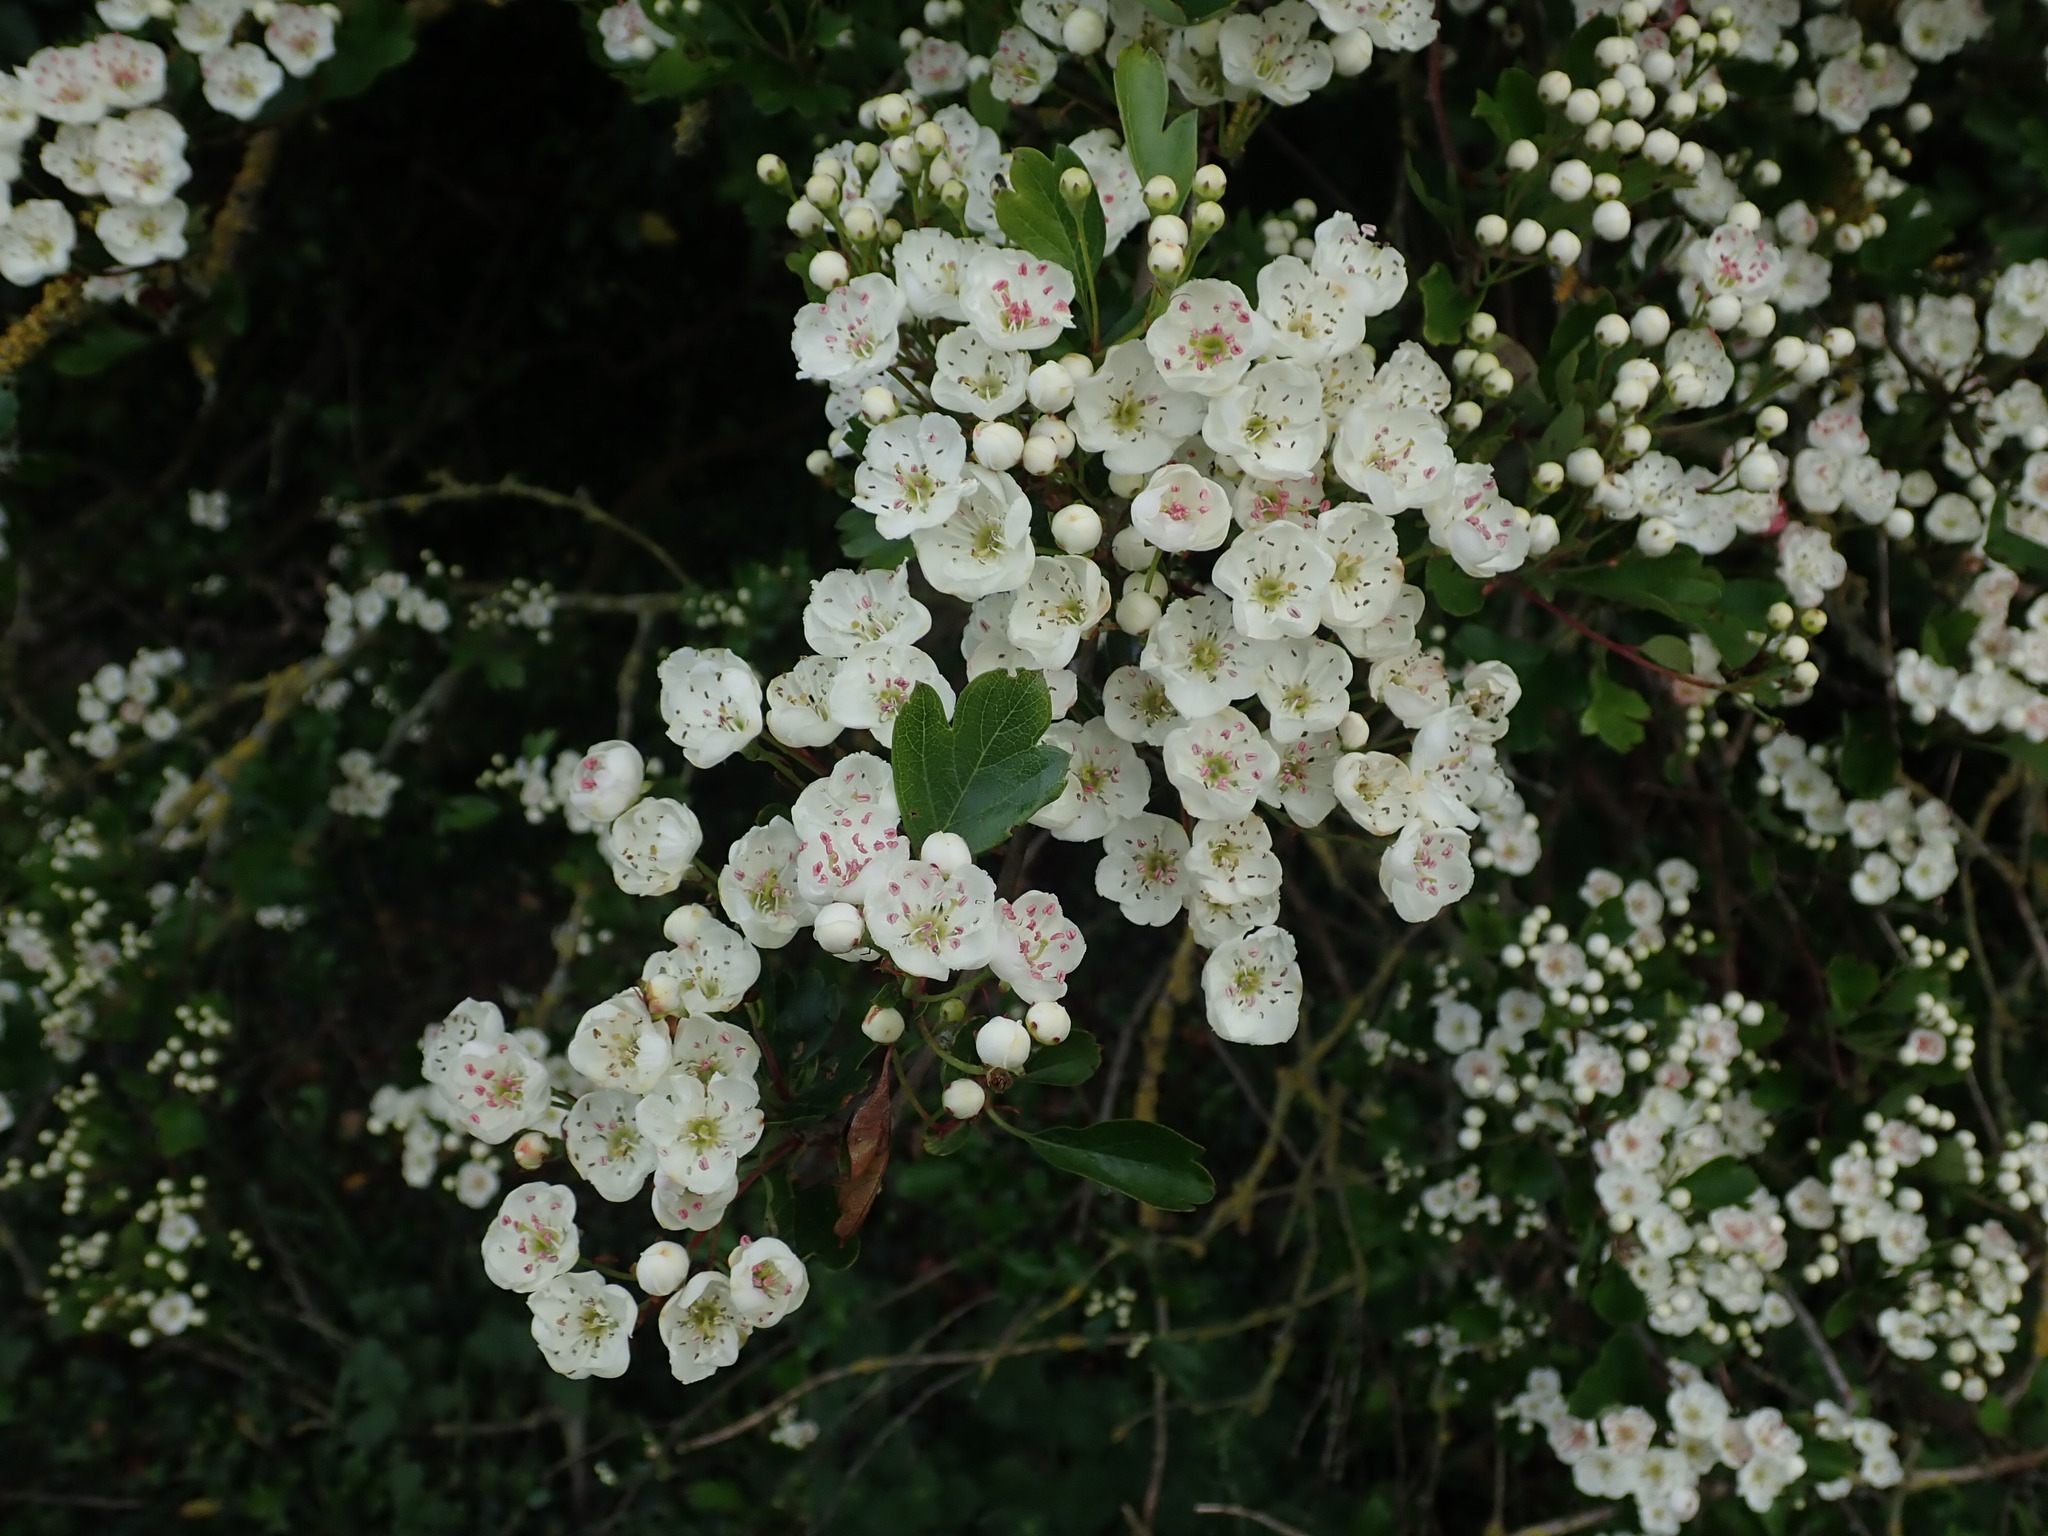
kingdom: Plantae
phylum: Tracheophyta
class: Magnoliopsida
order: Rosales
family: Rosaceae
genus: Crataegus
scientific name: Crataegus monogyna
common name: Hawthorn
